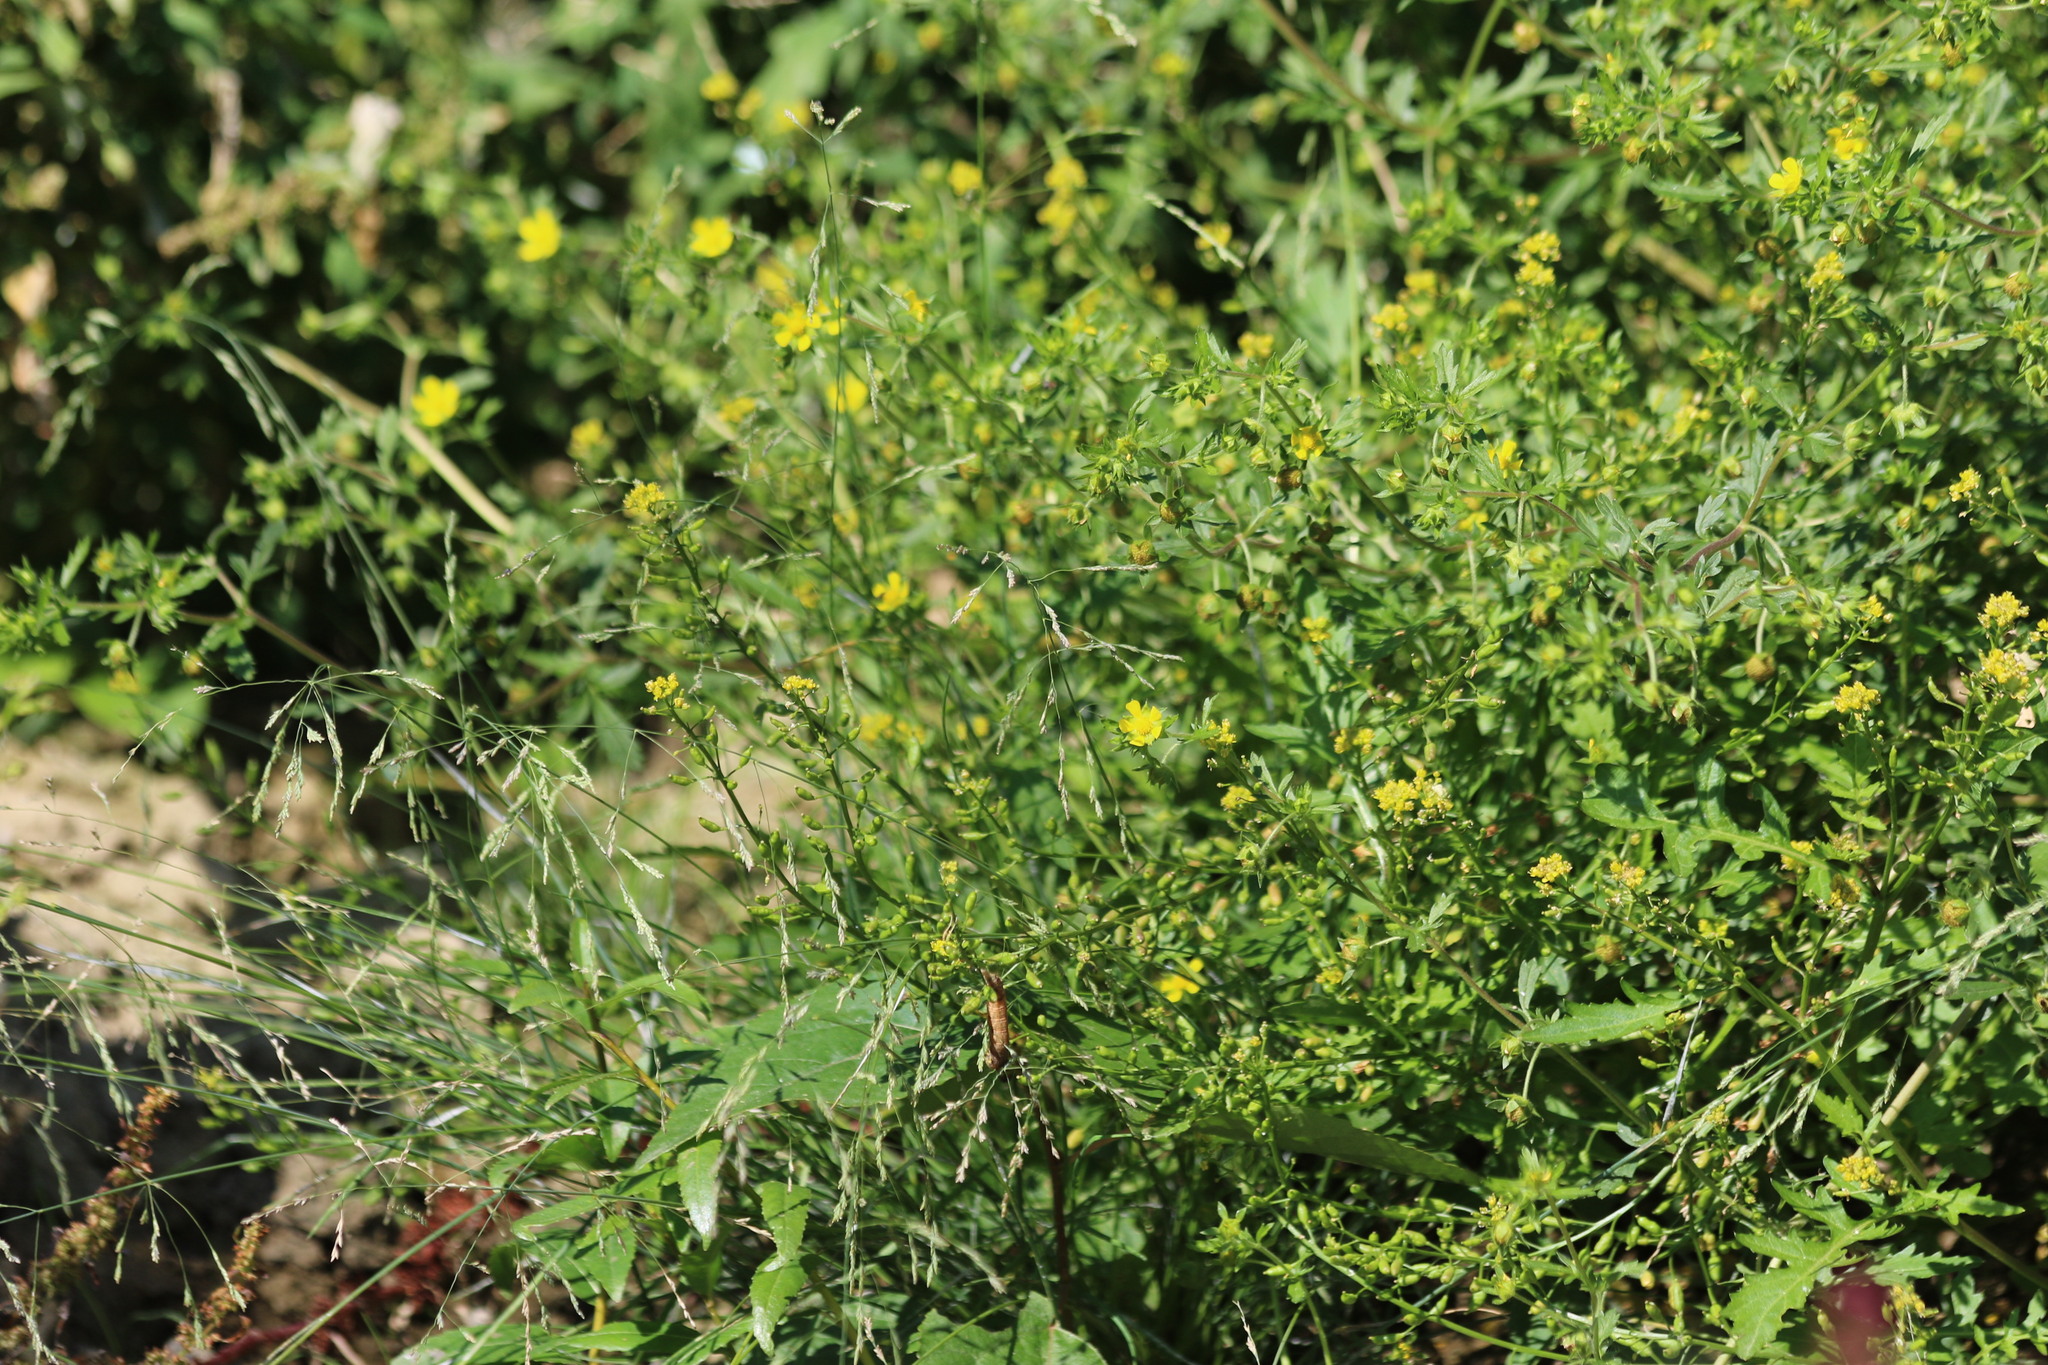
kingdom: Plantae
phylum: Tracheophyta
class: Magnoliopsida
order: Rosales
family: Rosaceae
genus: Potentilla
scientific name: Potentilla argentea
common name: Hoary cinquefoil
